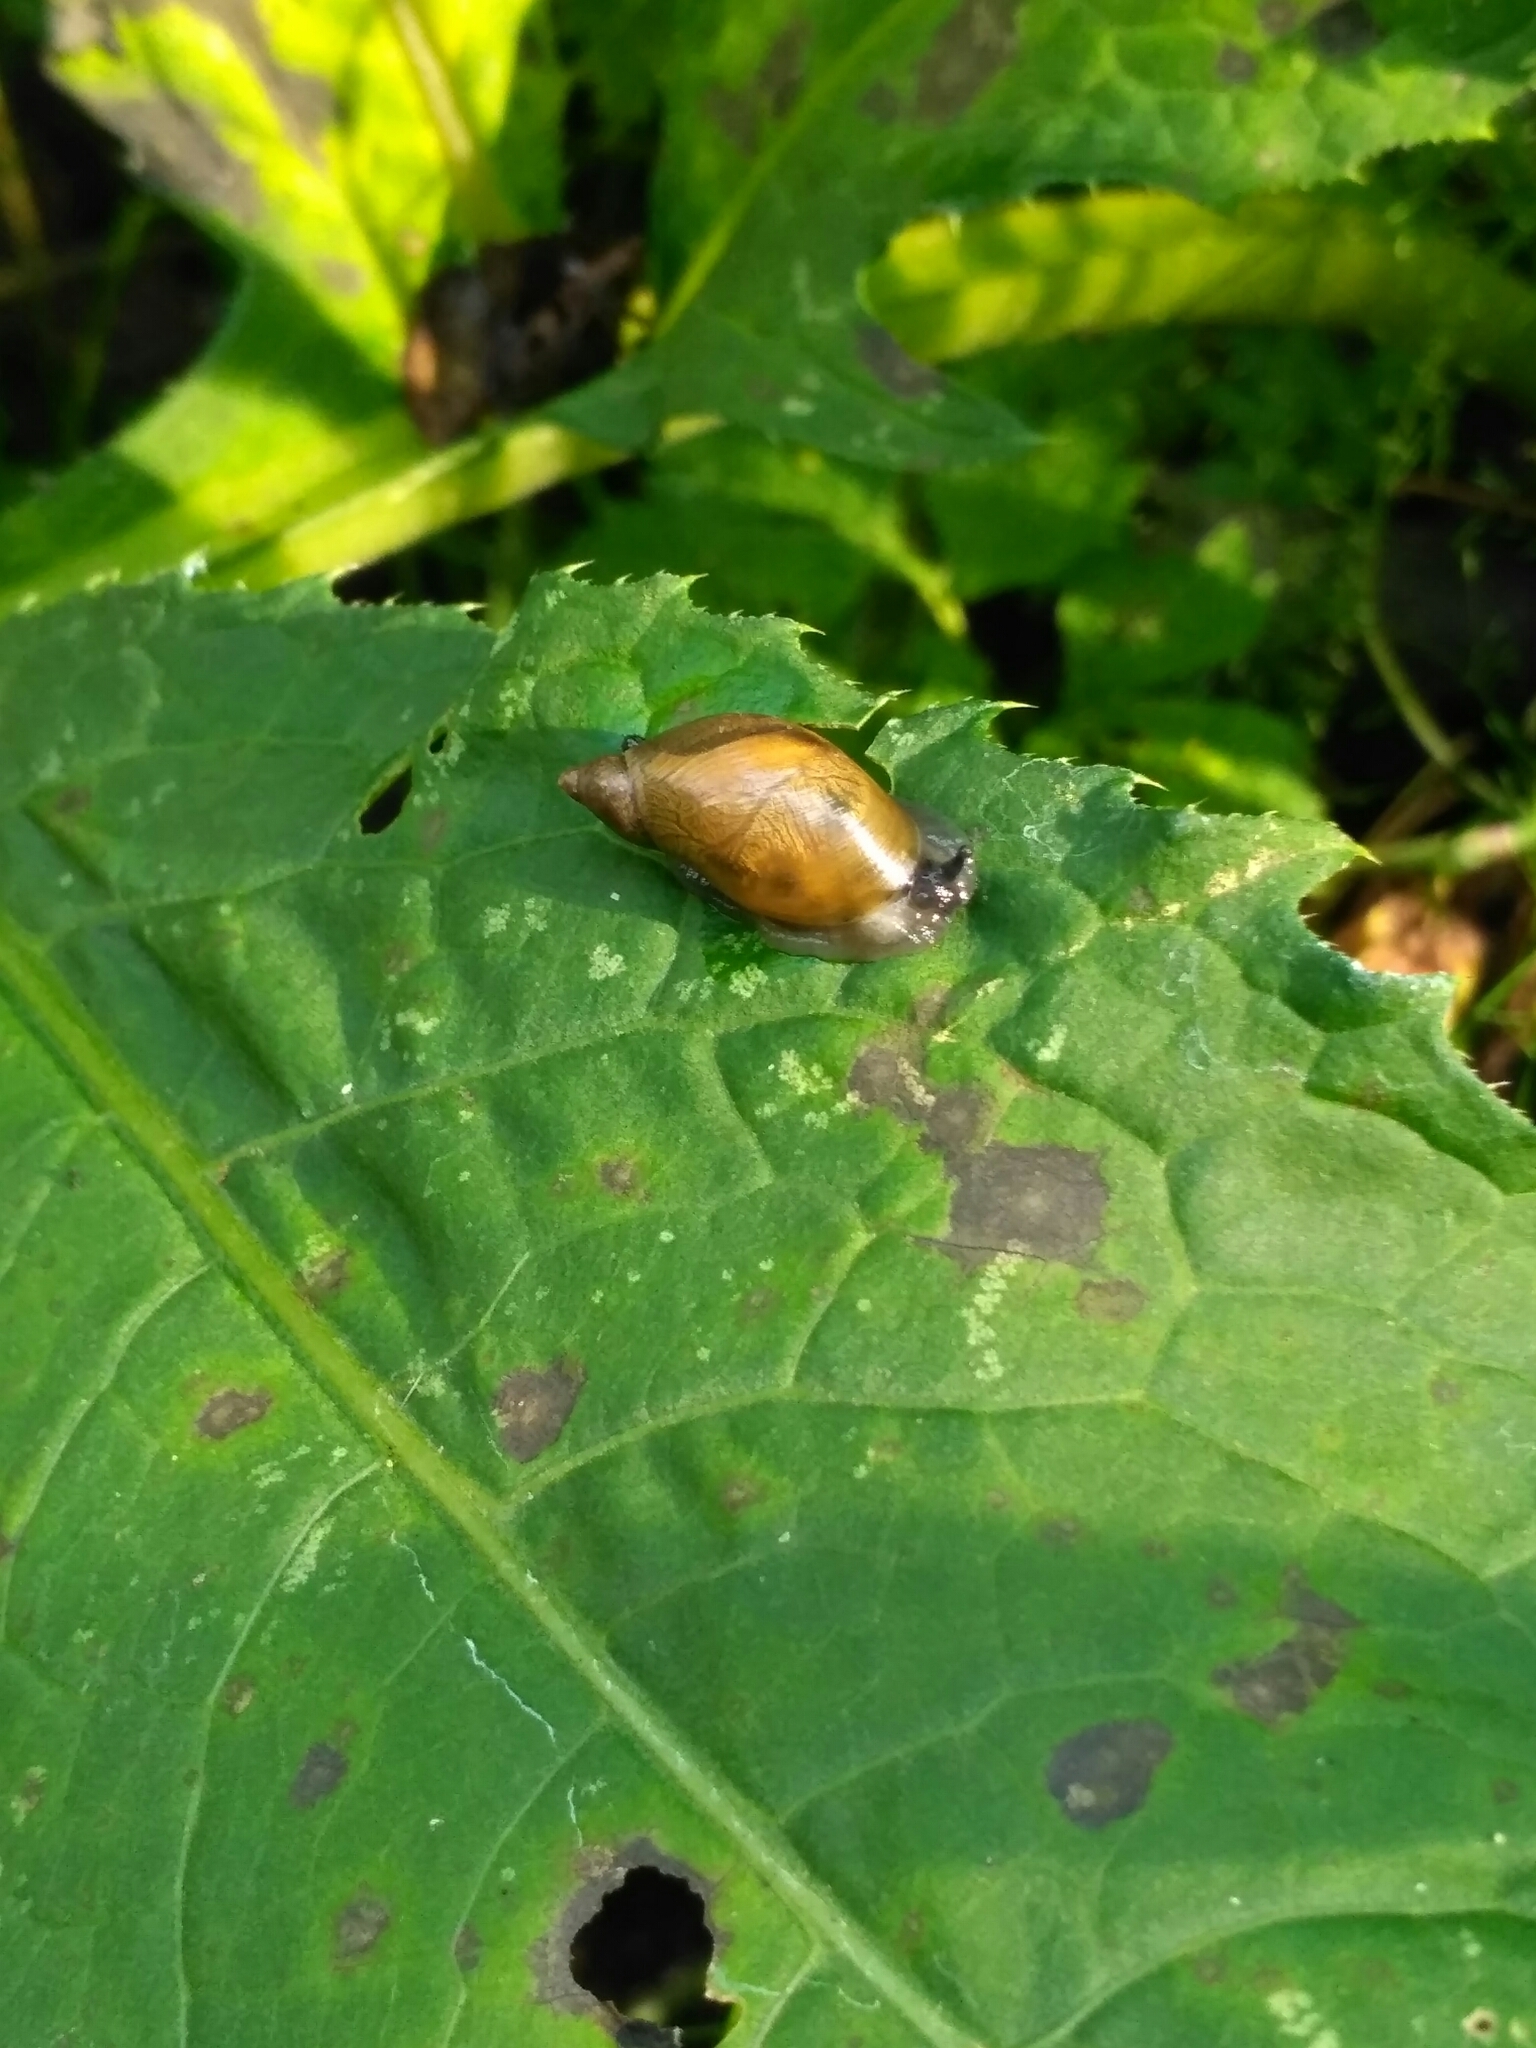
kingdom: Animalia
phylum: Mollusca
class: Gastropoda
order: Stylommatophora
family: Succineidae
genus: Succinea
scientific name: Succinea putris
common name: European ambersnail
